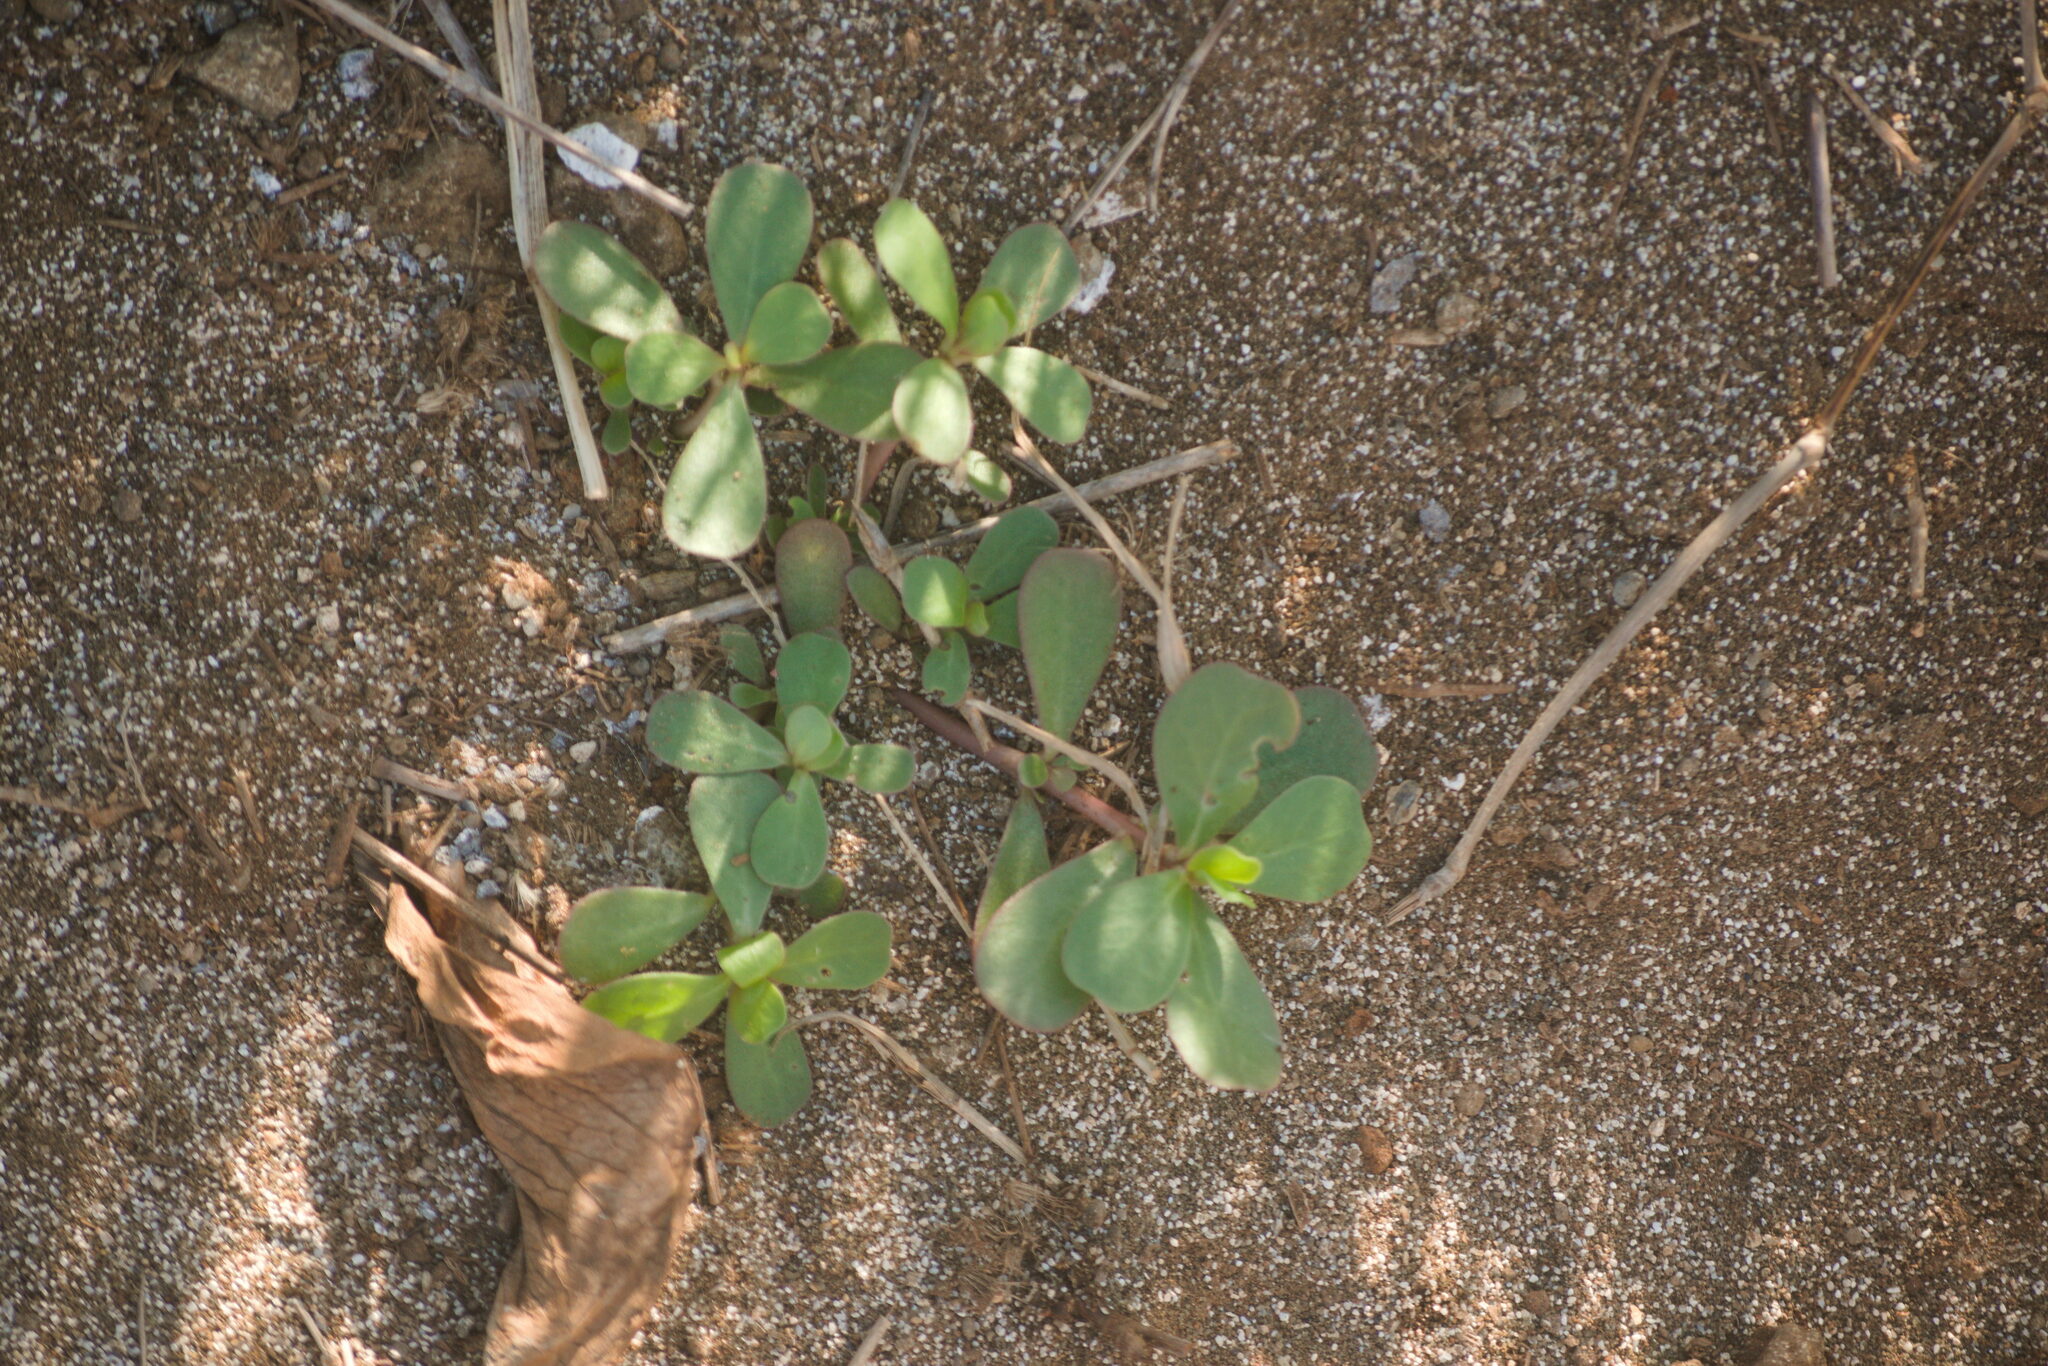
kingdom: Plantae
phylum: Tracheophyta
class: Magnoliopsida
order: Caryophyllales
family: Portulacaceae
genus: Portulaca
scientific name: Portulaca oleracea
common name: Common purslane
